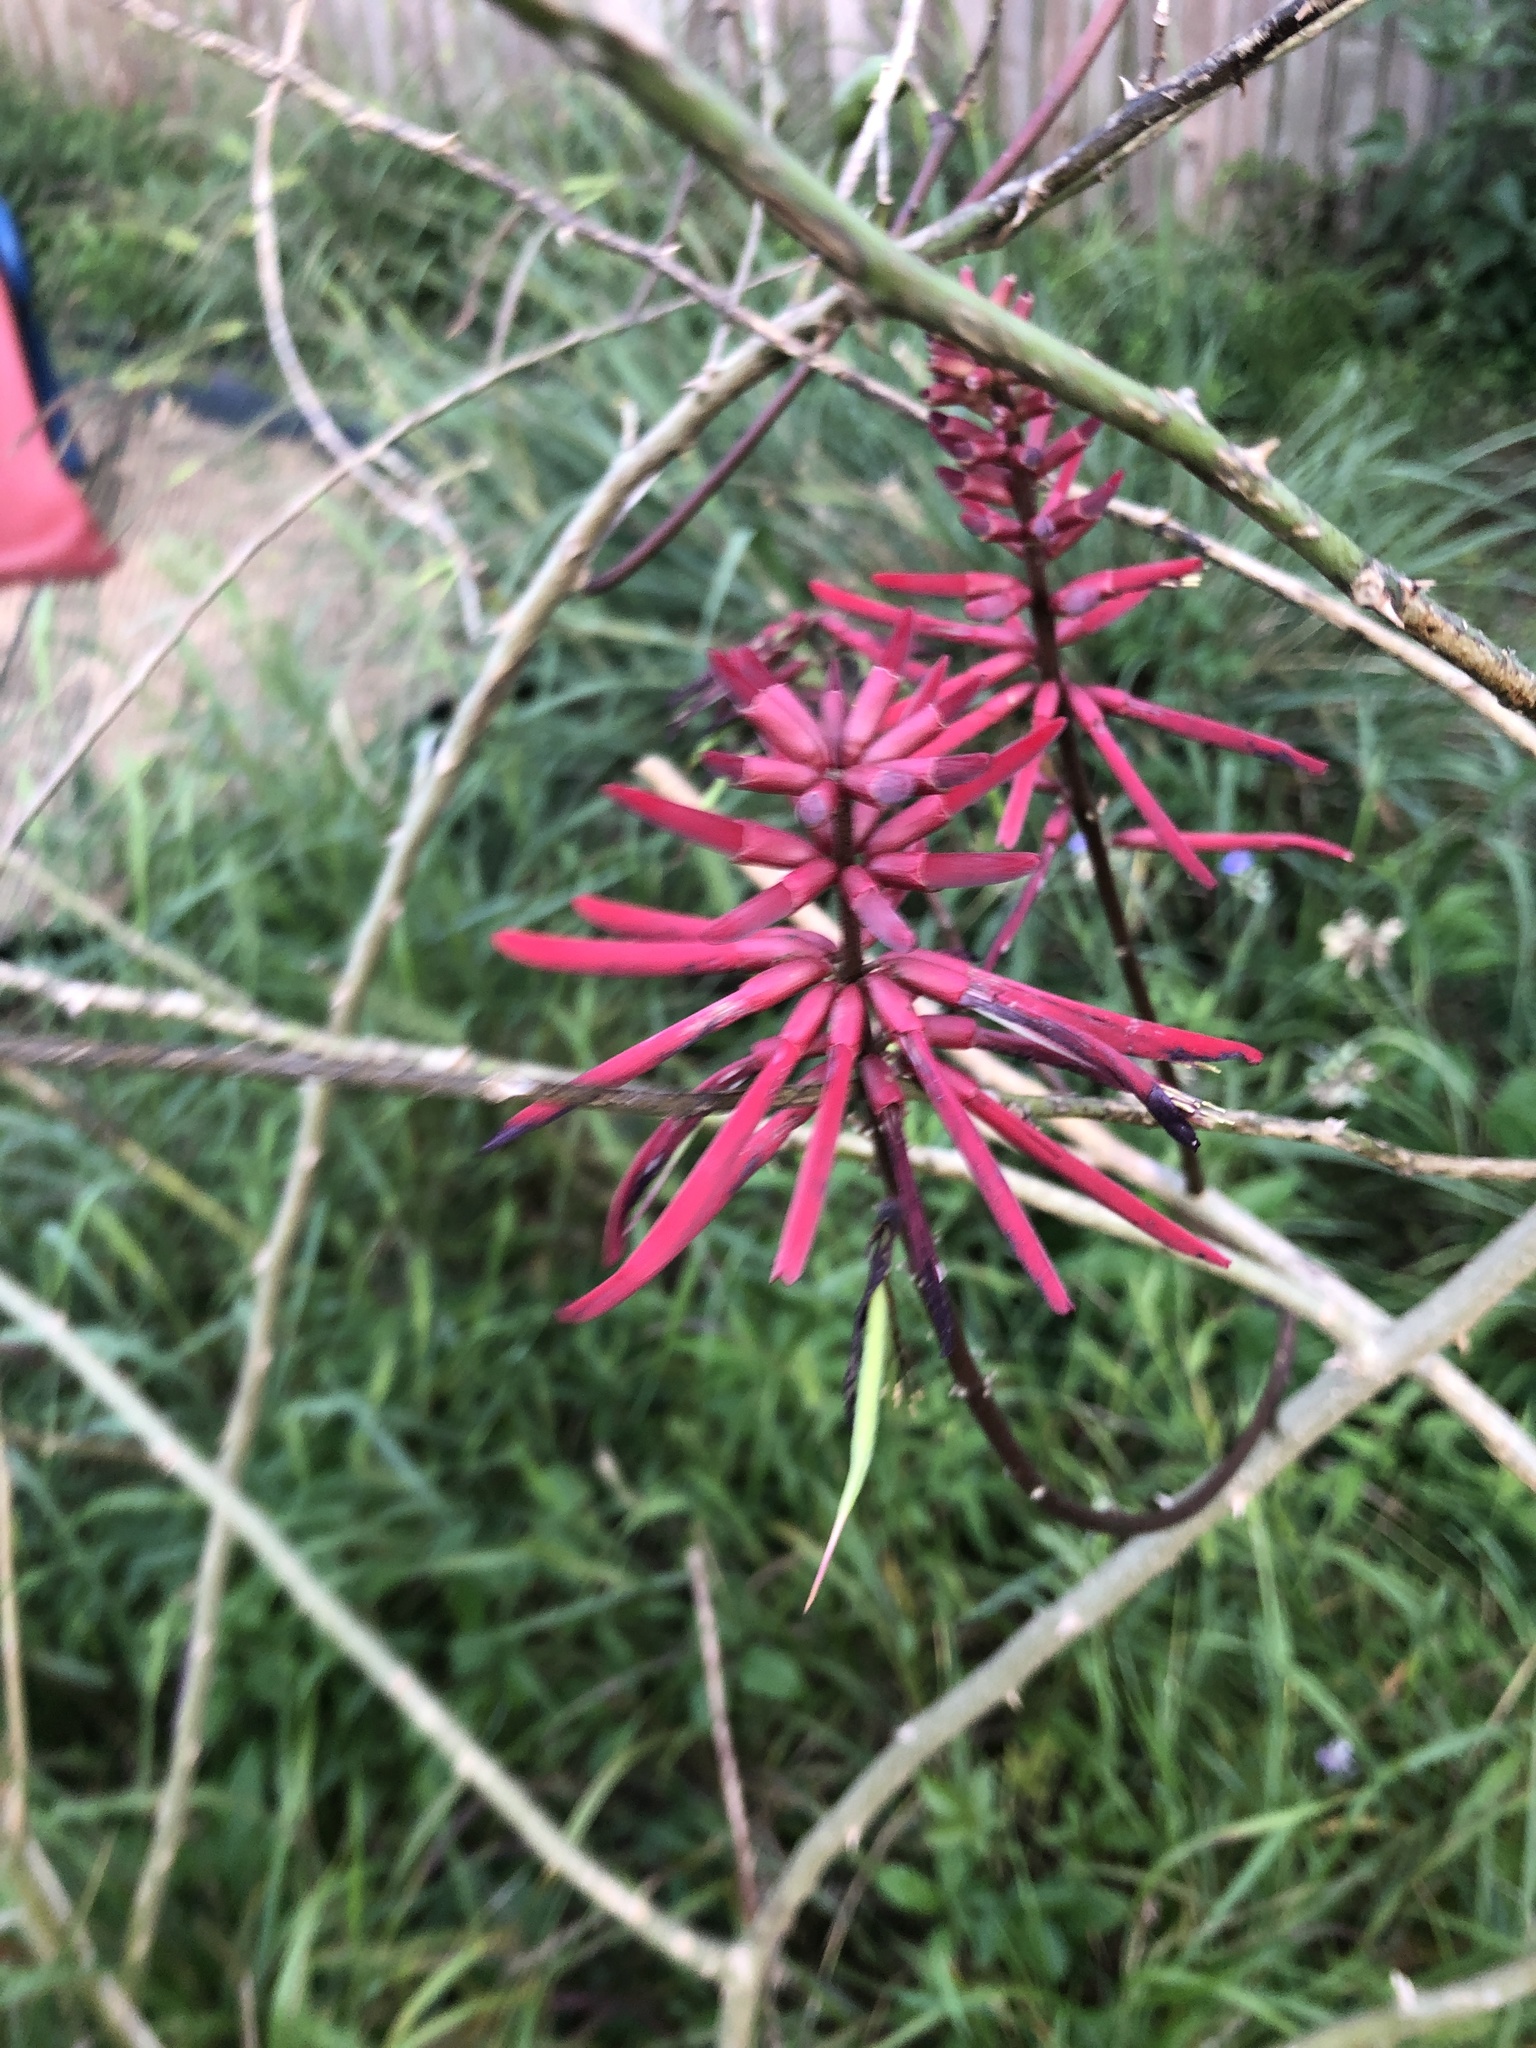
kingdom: Plantae
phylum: Tracheophyta
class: Magnoliopsida
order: Fabales
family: Fabaceae
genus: Erythrina
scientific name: Erythrina herbacea
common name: Coral-bean
